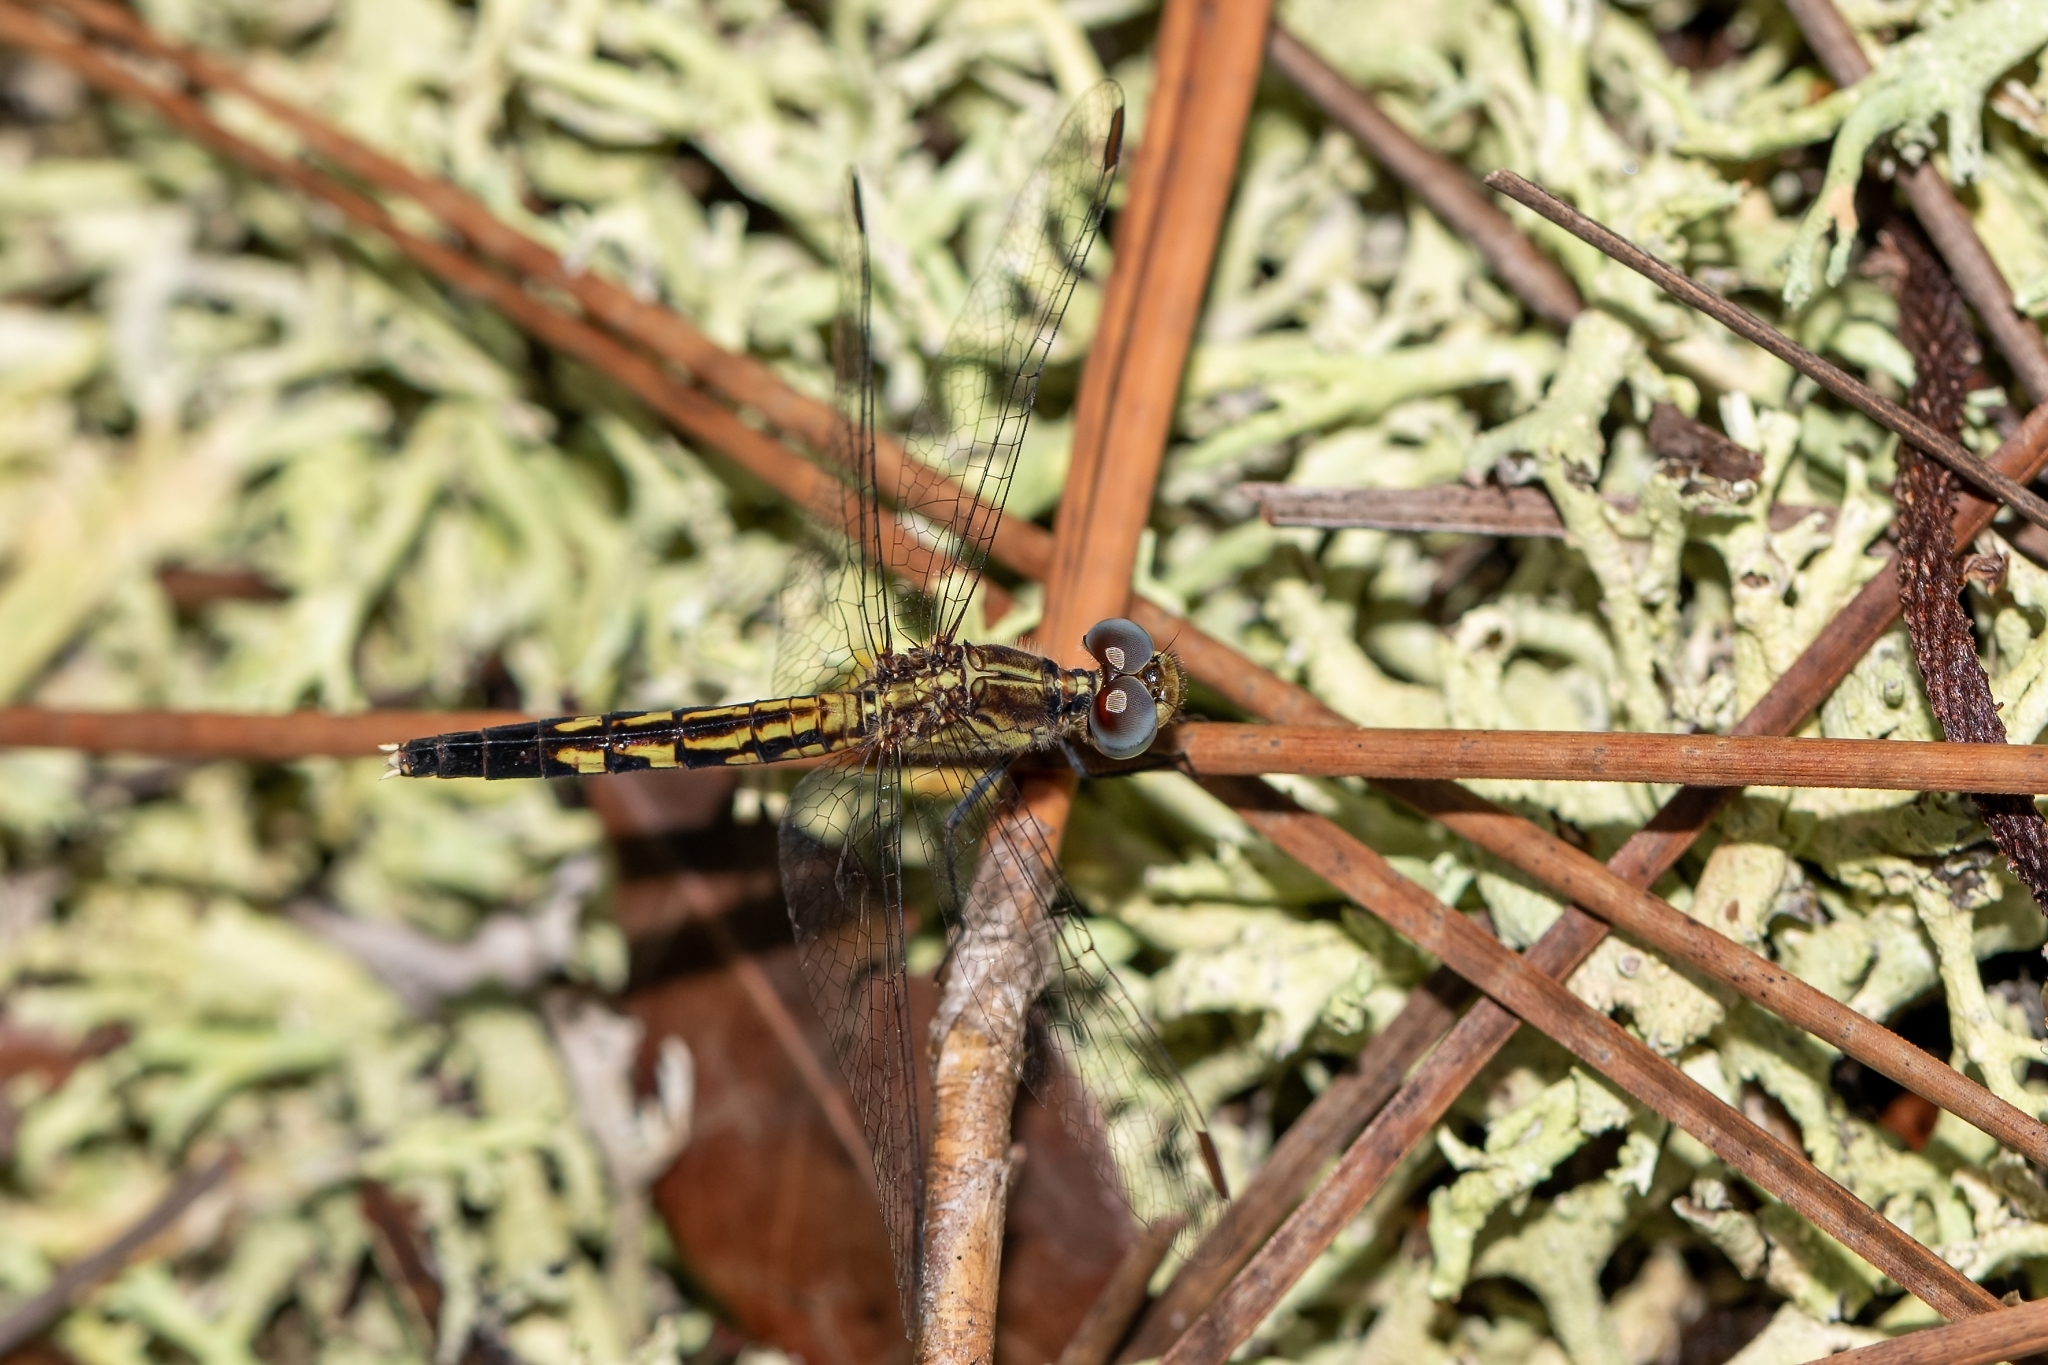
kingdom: Animalia
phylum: Arthropoda
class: Insecta
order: Odonata
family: Libellulidae
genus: Erythrodiplax
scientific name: Erythrodiplax minuscula
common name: Little blue dragonlet
